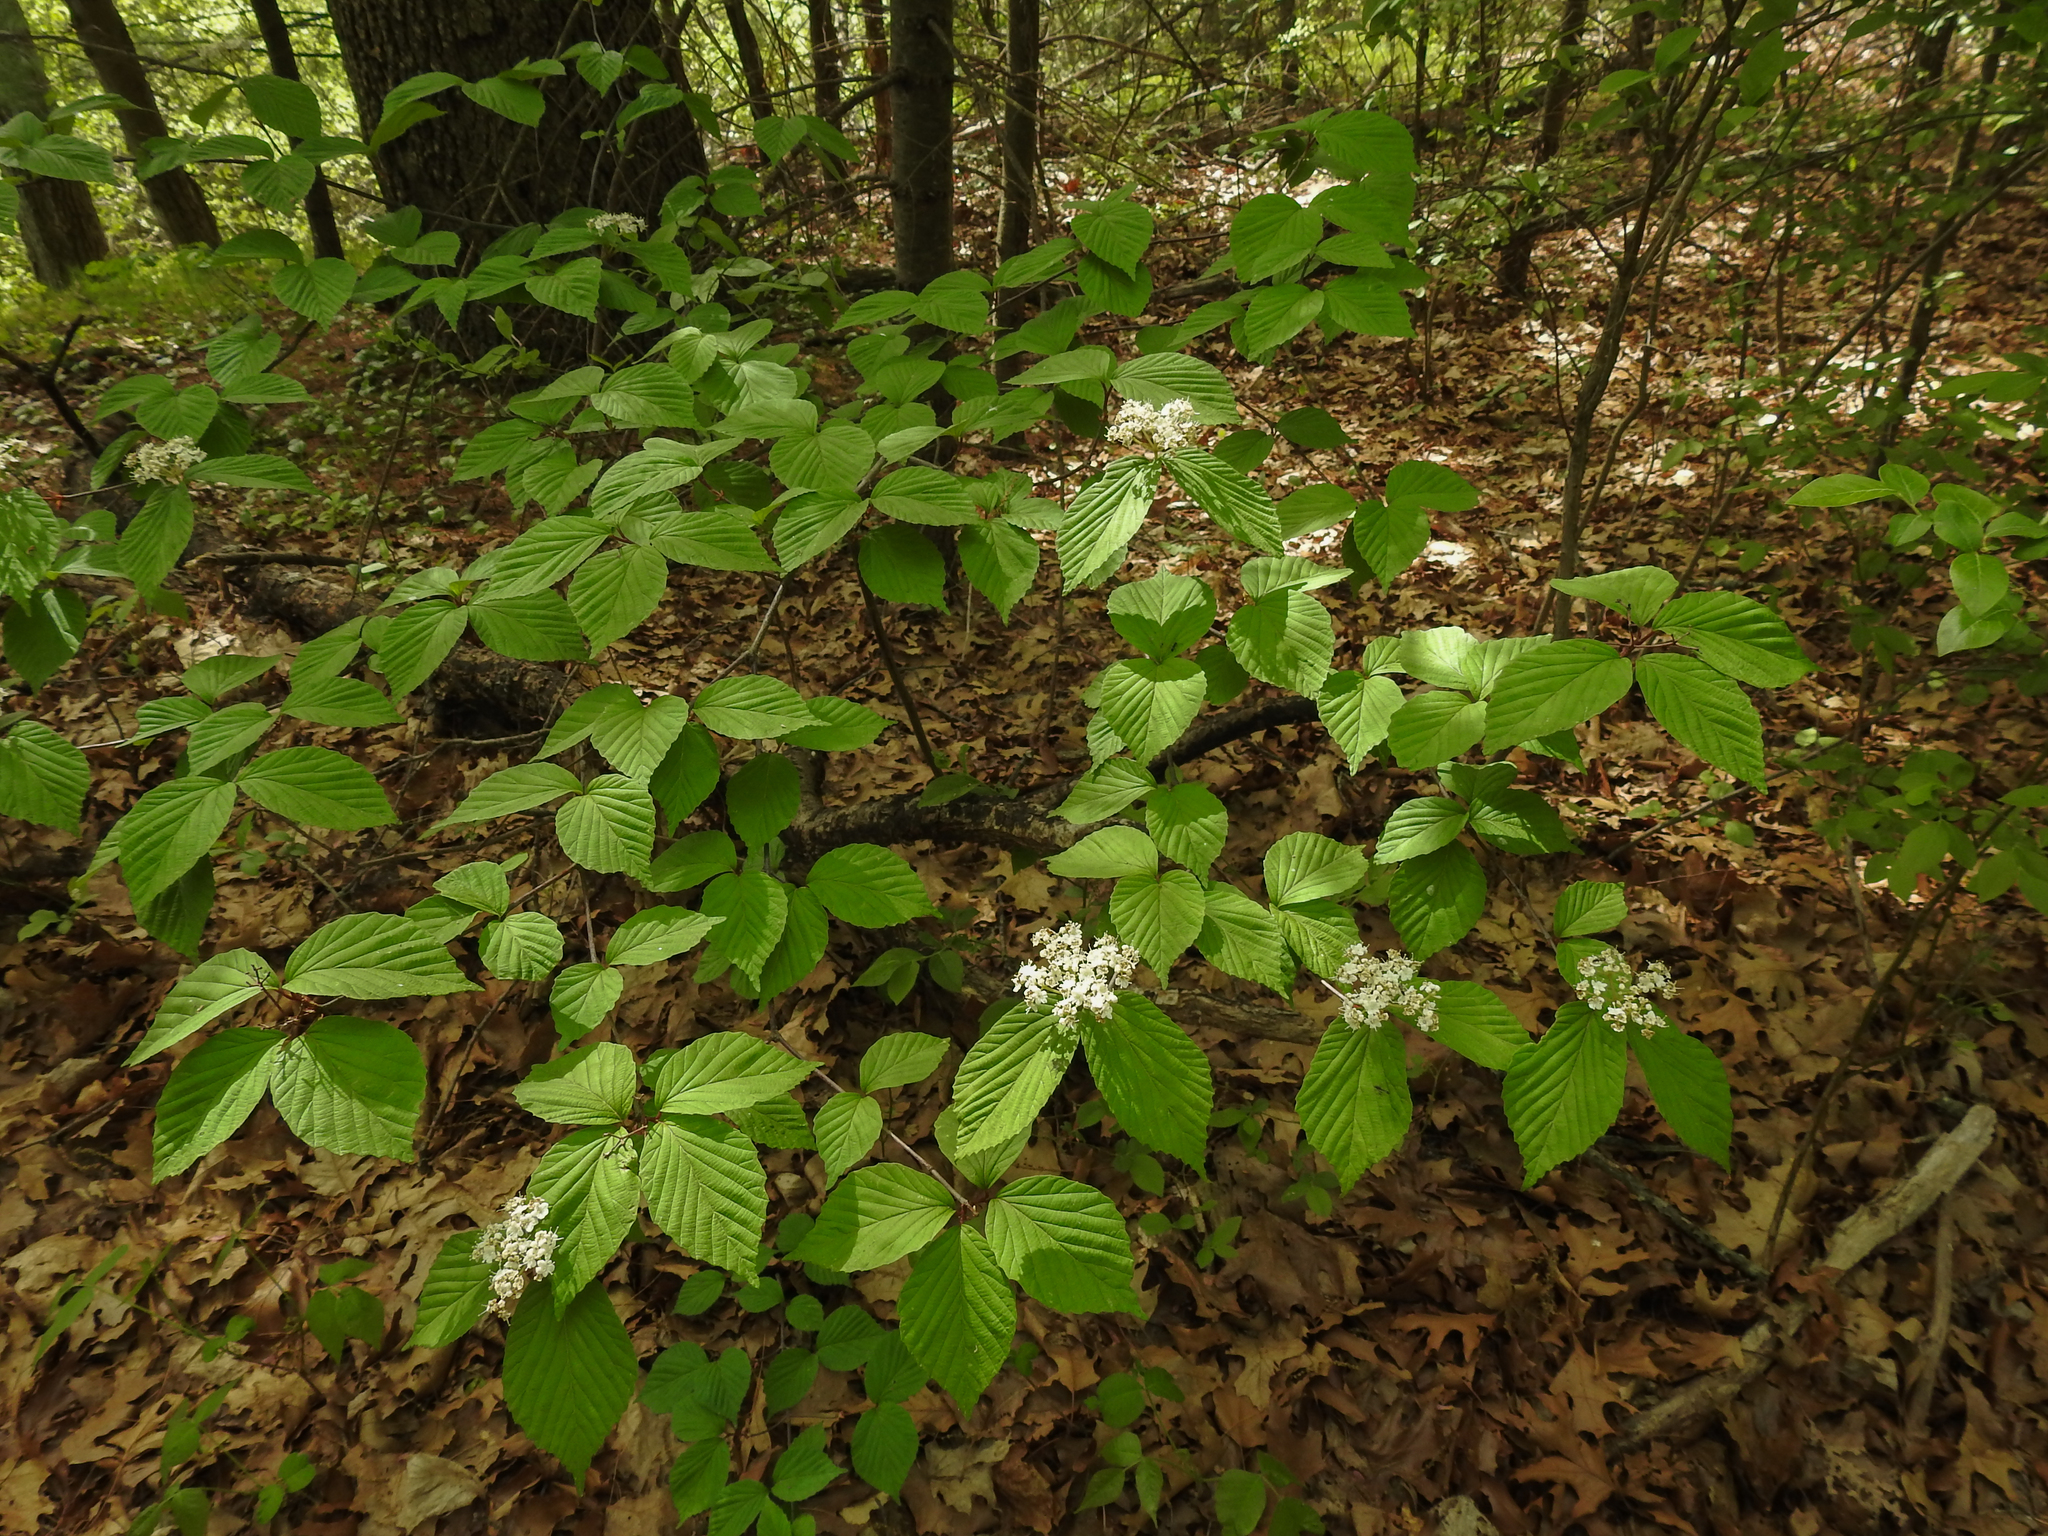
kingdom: Plantae
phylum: Tracheophyta
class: Magnoliopsida
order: Dipsacales
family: Viburnaceae
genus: Viburnum
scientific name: Viburnum wrightii
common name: Wright's viburnum
